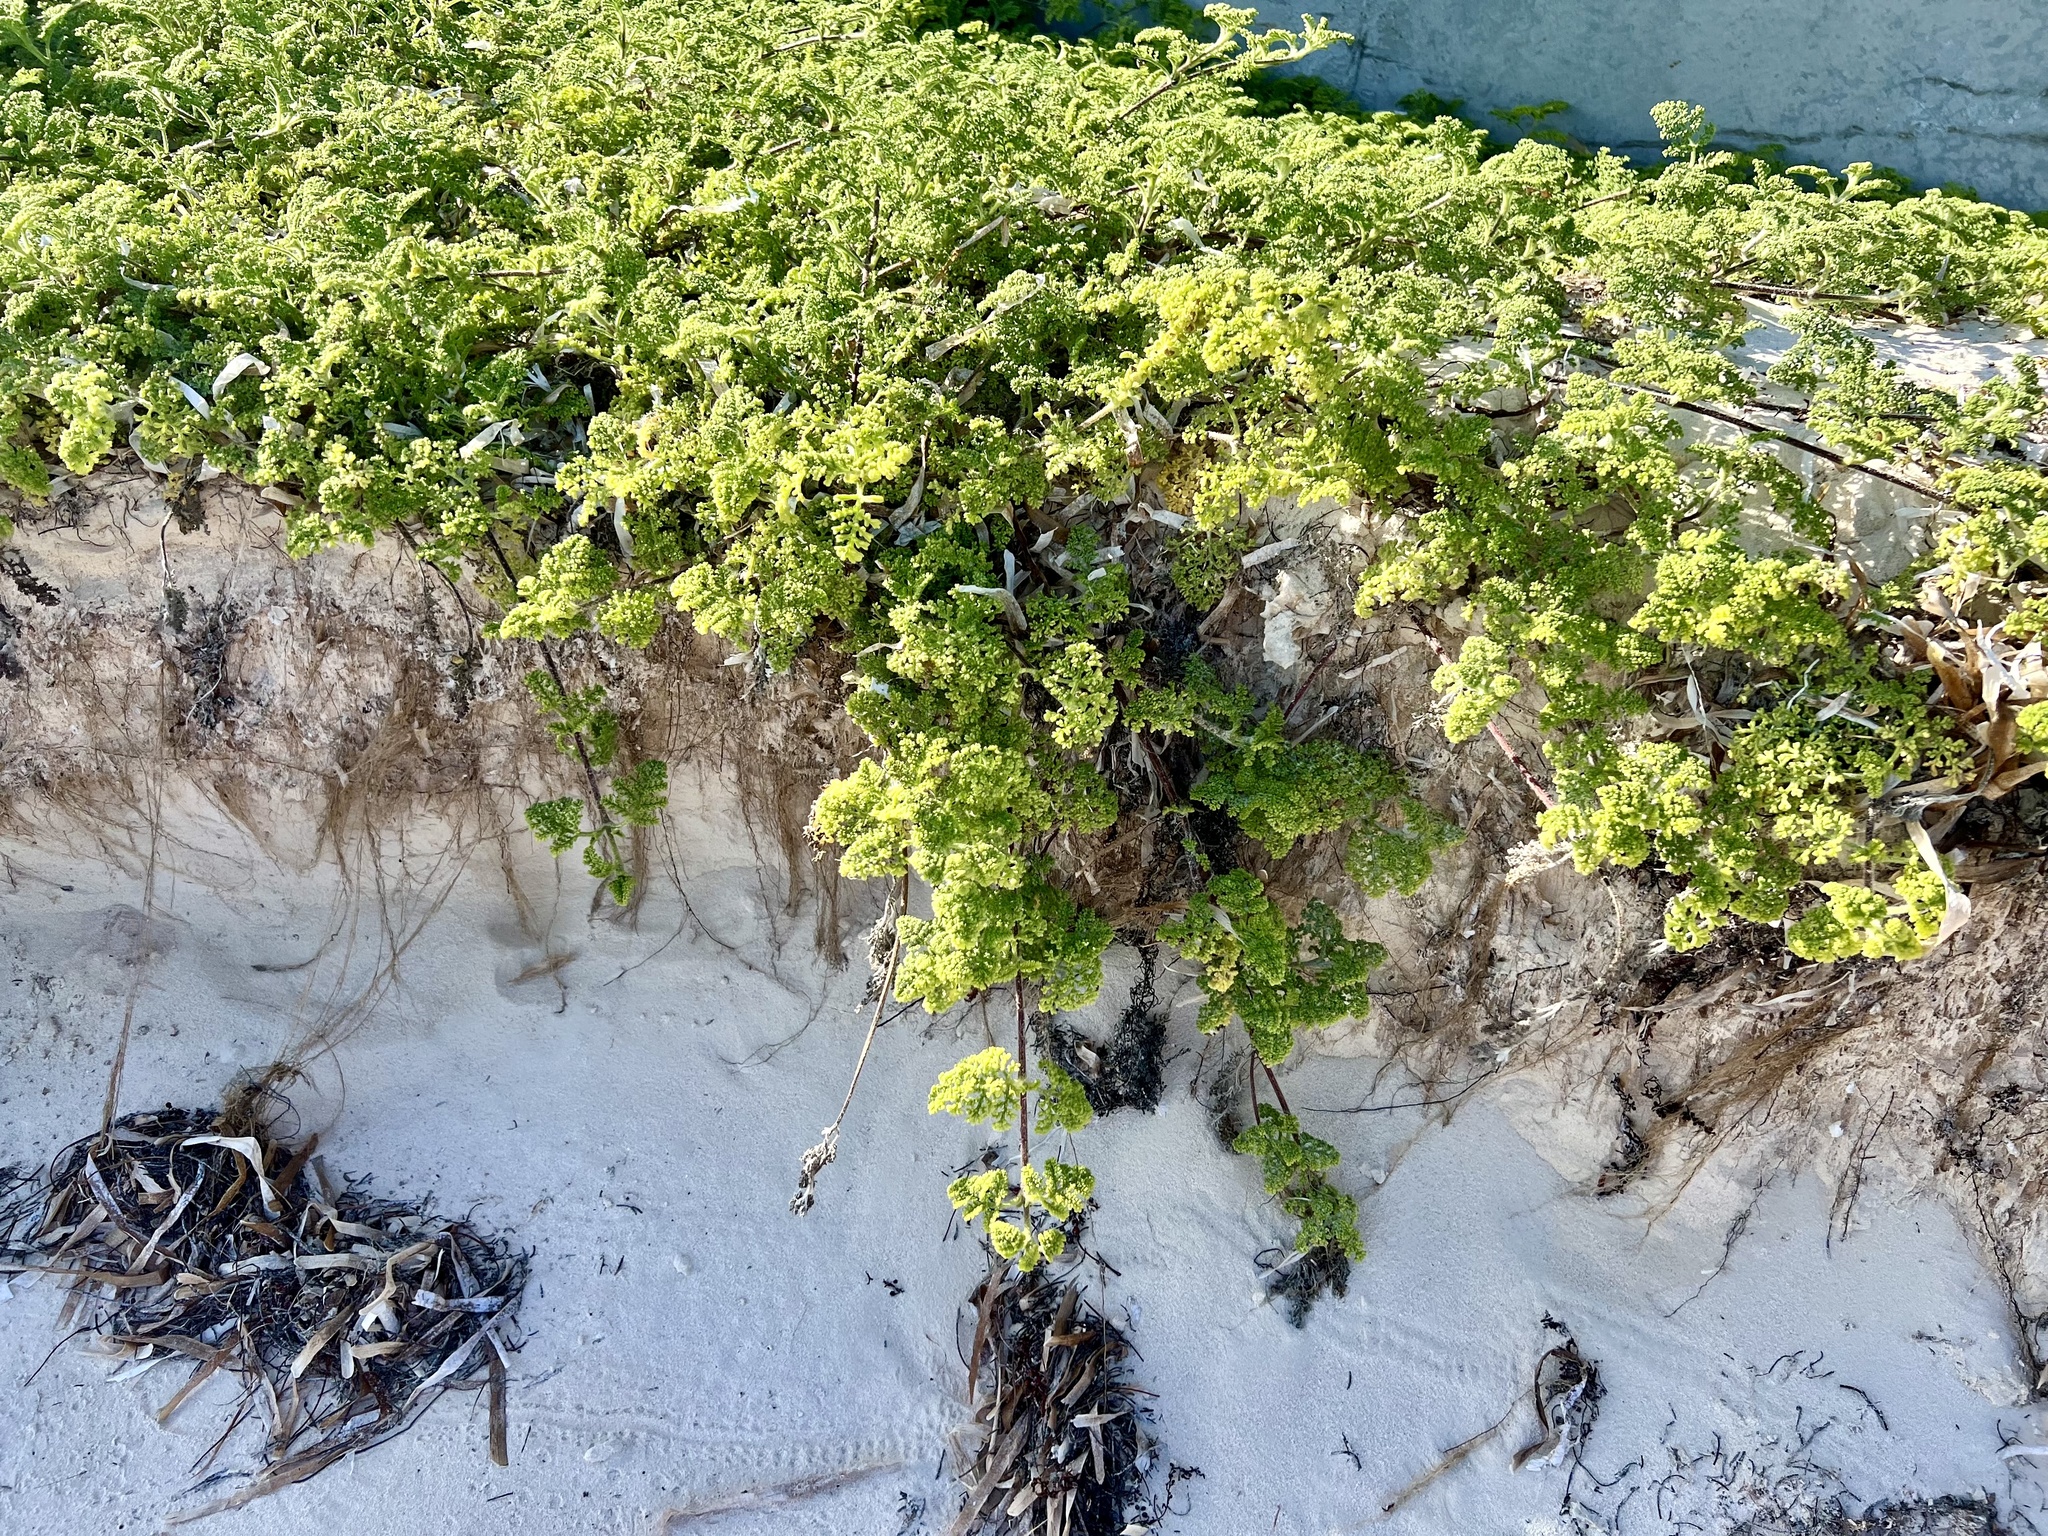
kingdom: Plantae
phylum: Tracheophyta
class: Magnoliopsida
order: Asterales
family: Asteraceae
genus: Ambrosia
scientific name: Ambrosia hispida
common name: Coastal ragweed
